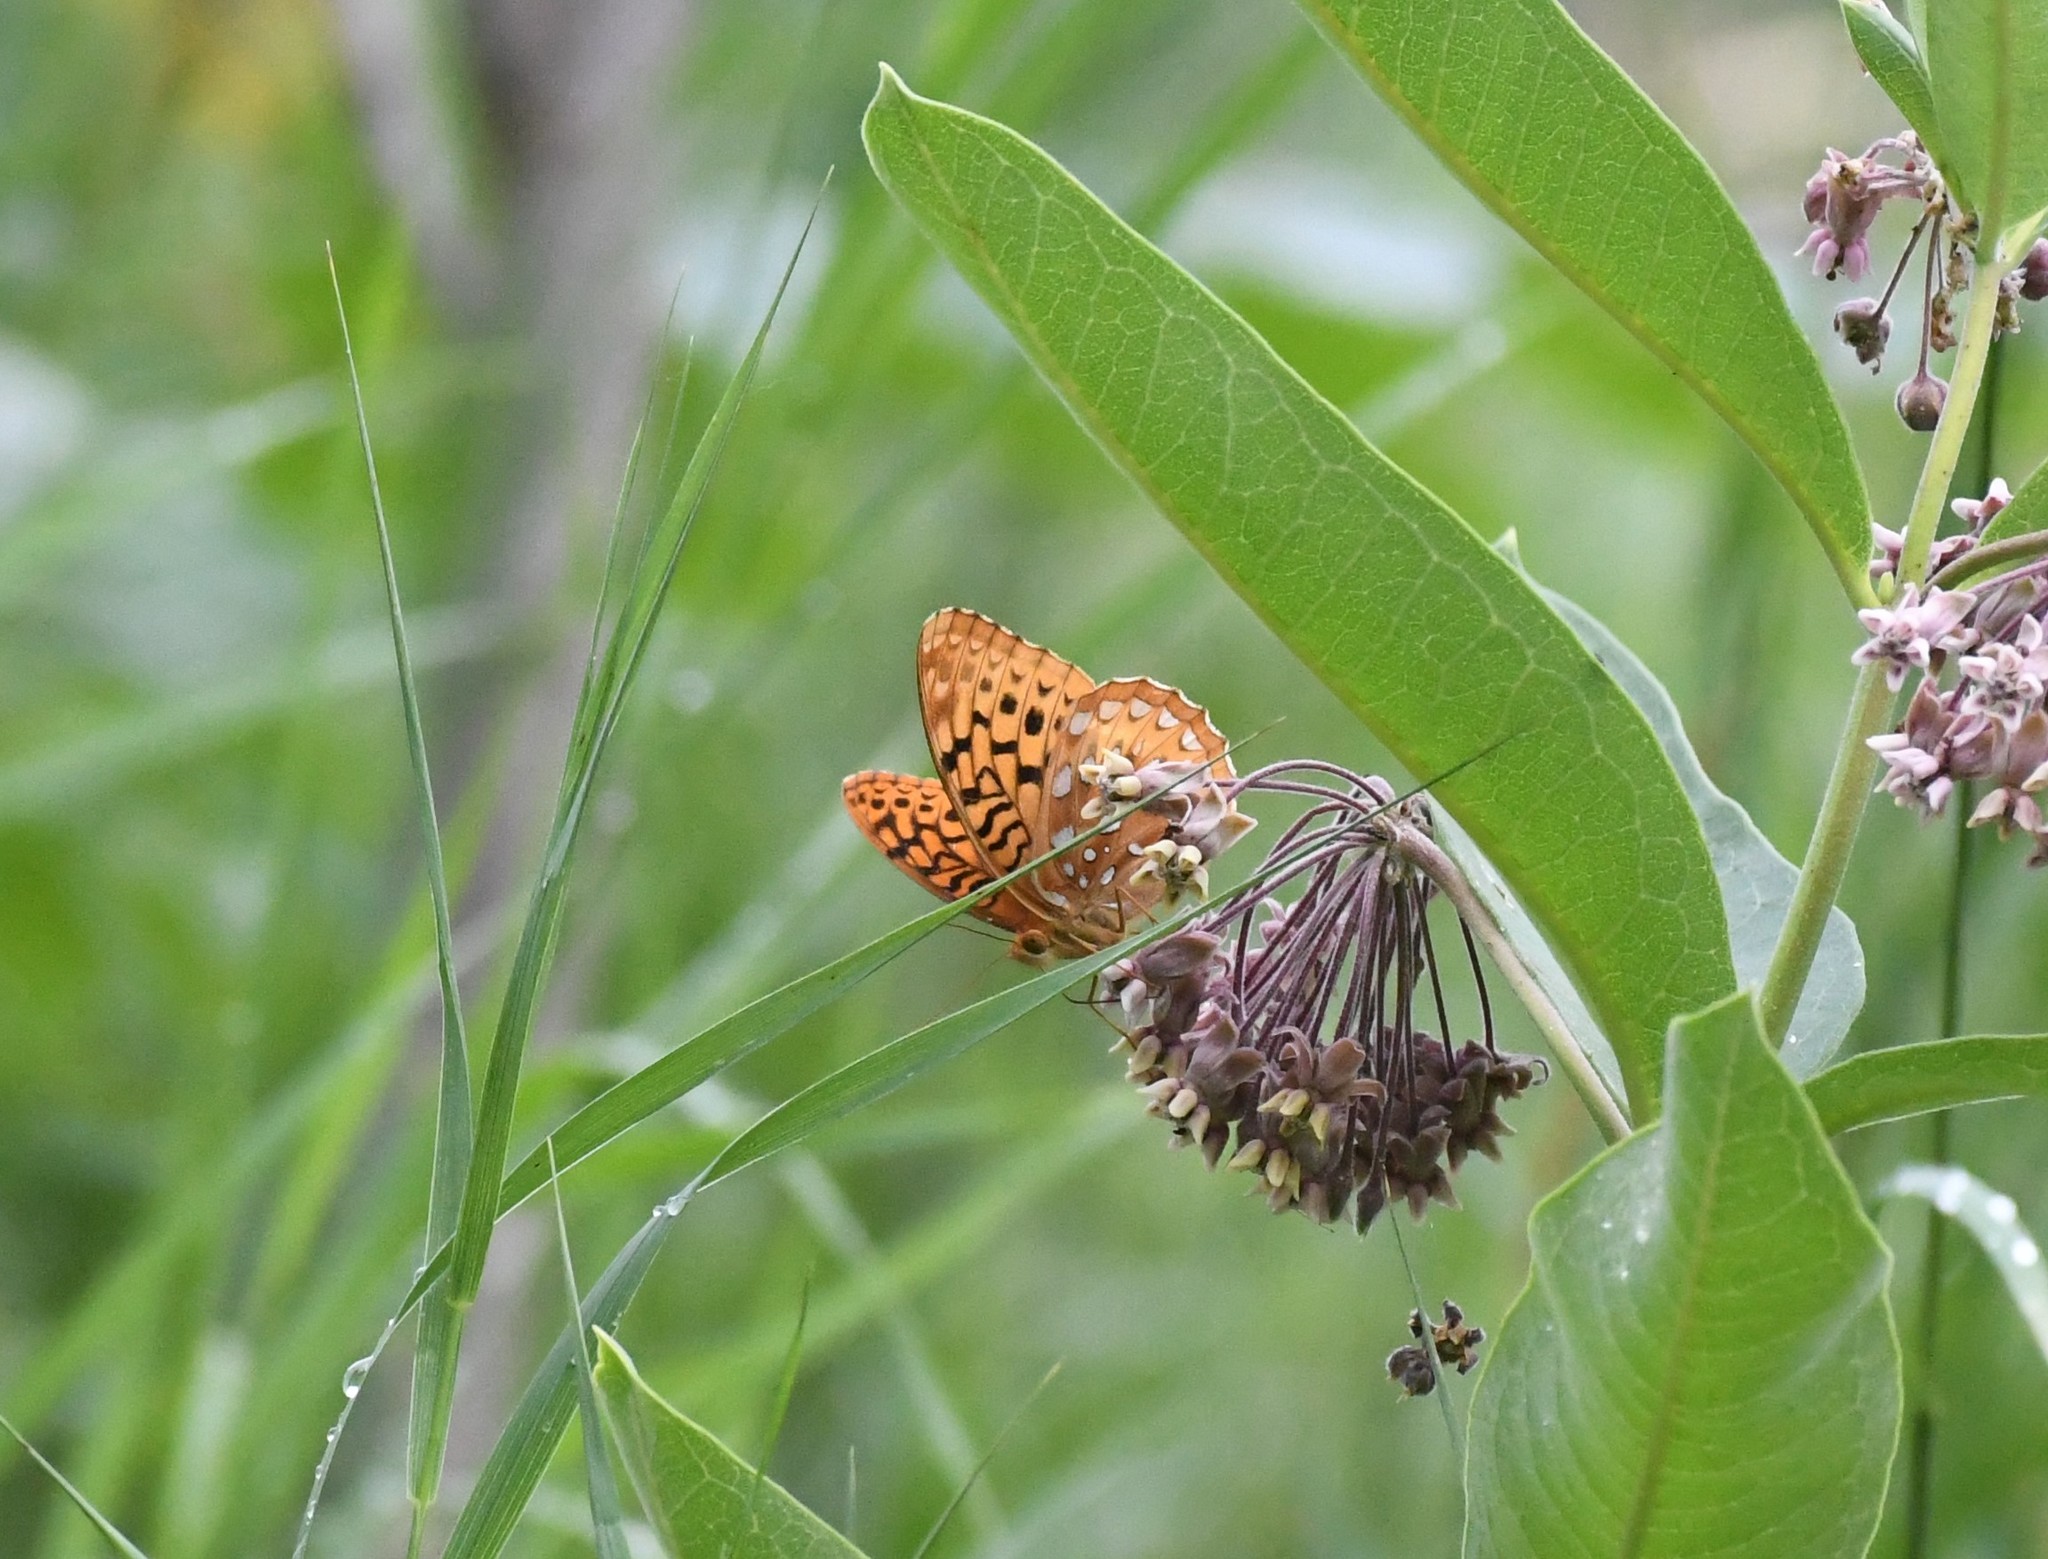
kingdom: Animalia
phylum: Arthropoda
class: Insecta
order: Lepidoptera
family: Nymphalidae
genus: Speyeria
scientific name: Speyeria cybele
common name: Great spangled fritillary
